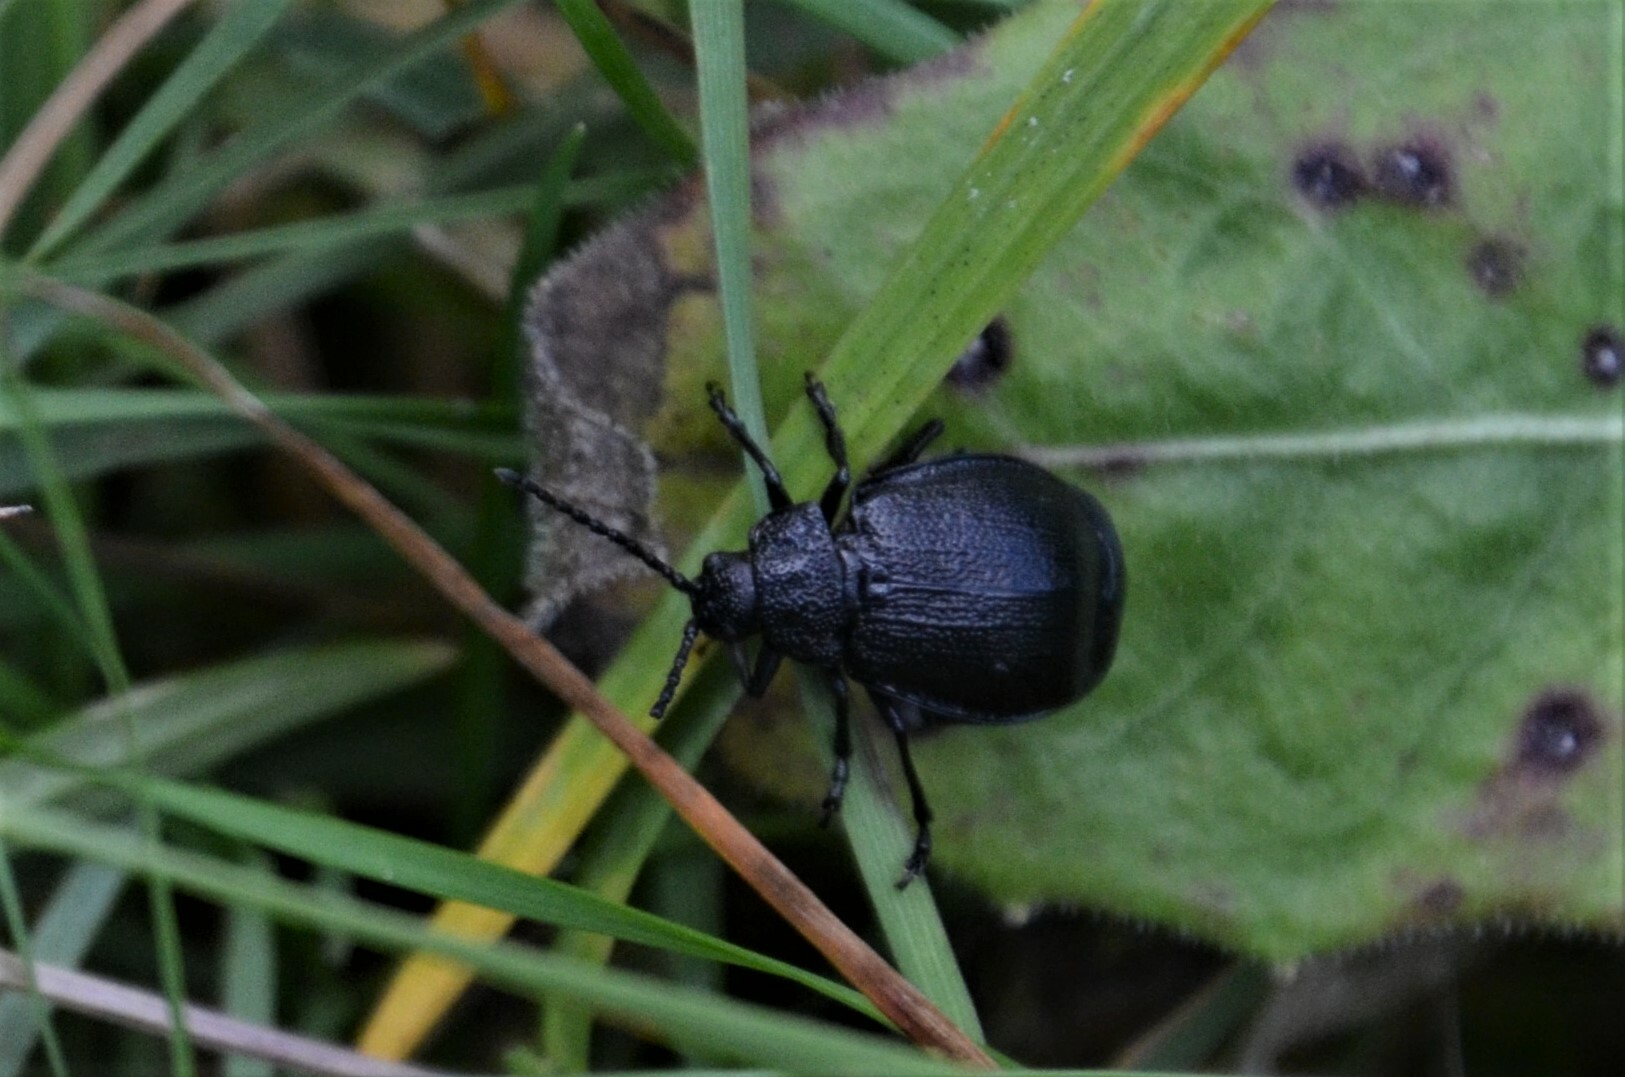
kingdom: Animalia
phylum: Arthropoda
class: Insecta
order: Coleoptera
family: Chrysomelidae
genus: Galeruca
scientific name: Galeruca tanaceti
